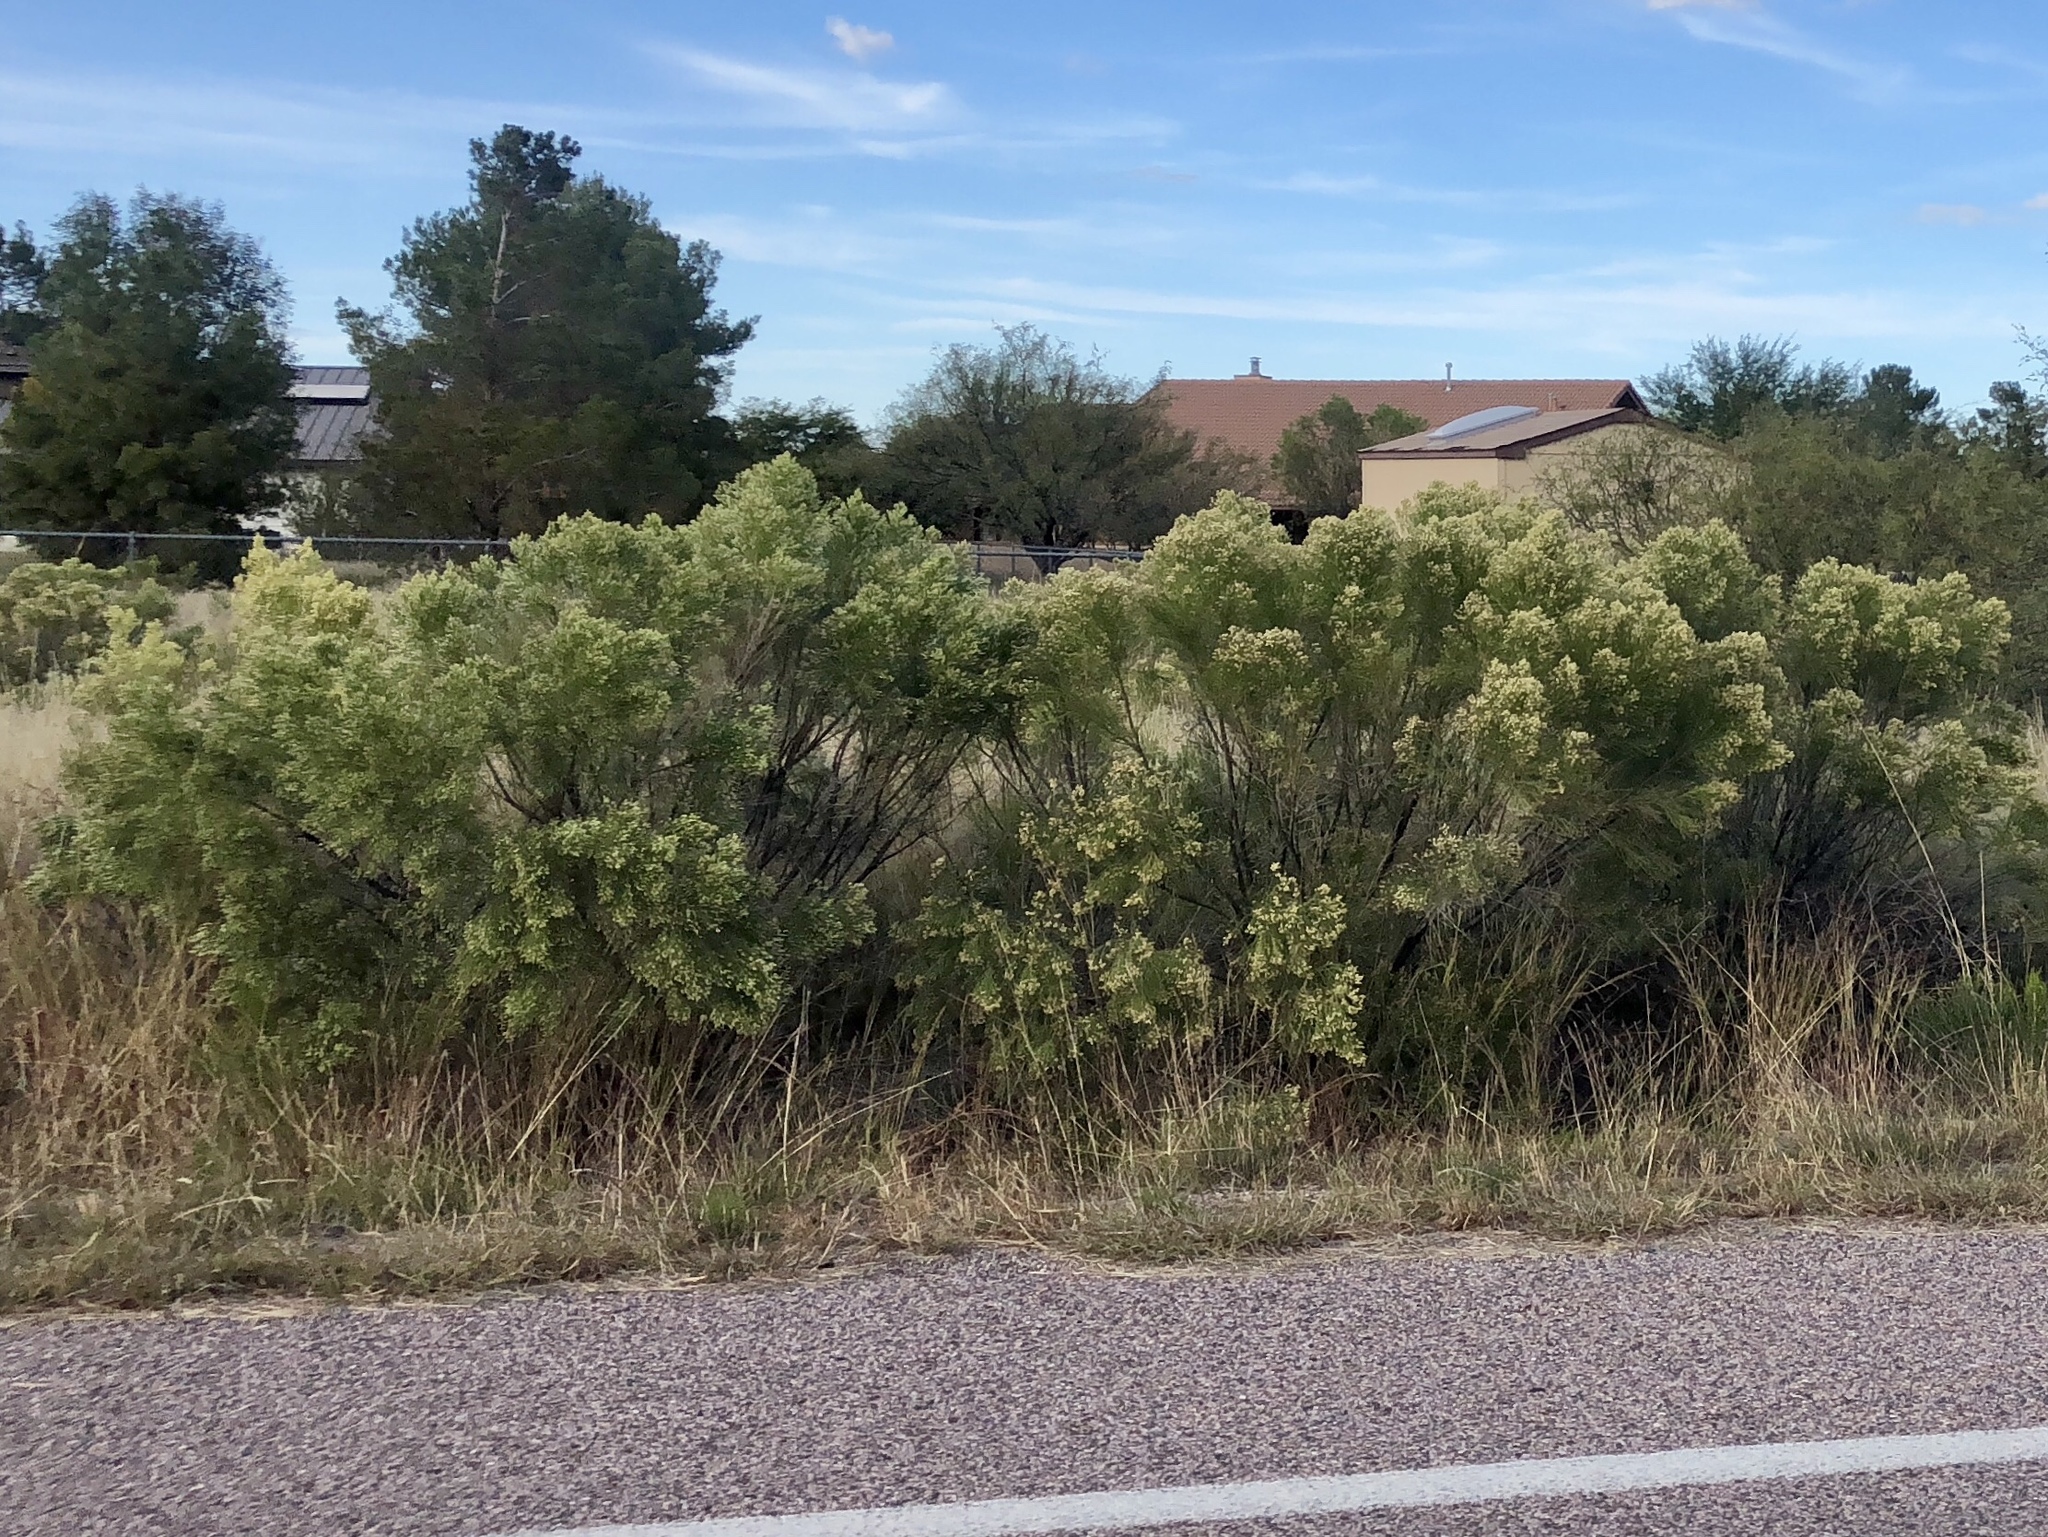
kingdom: Plantae
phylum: Tracheophyta
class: Magnoliopsida
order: Asterales
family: Asteraceae
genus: Baccharis
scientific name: Baccharis sarothroides
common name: Desert-broom
